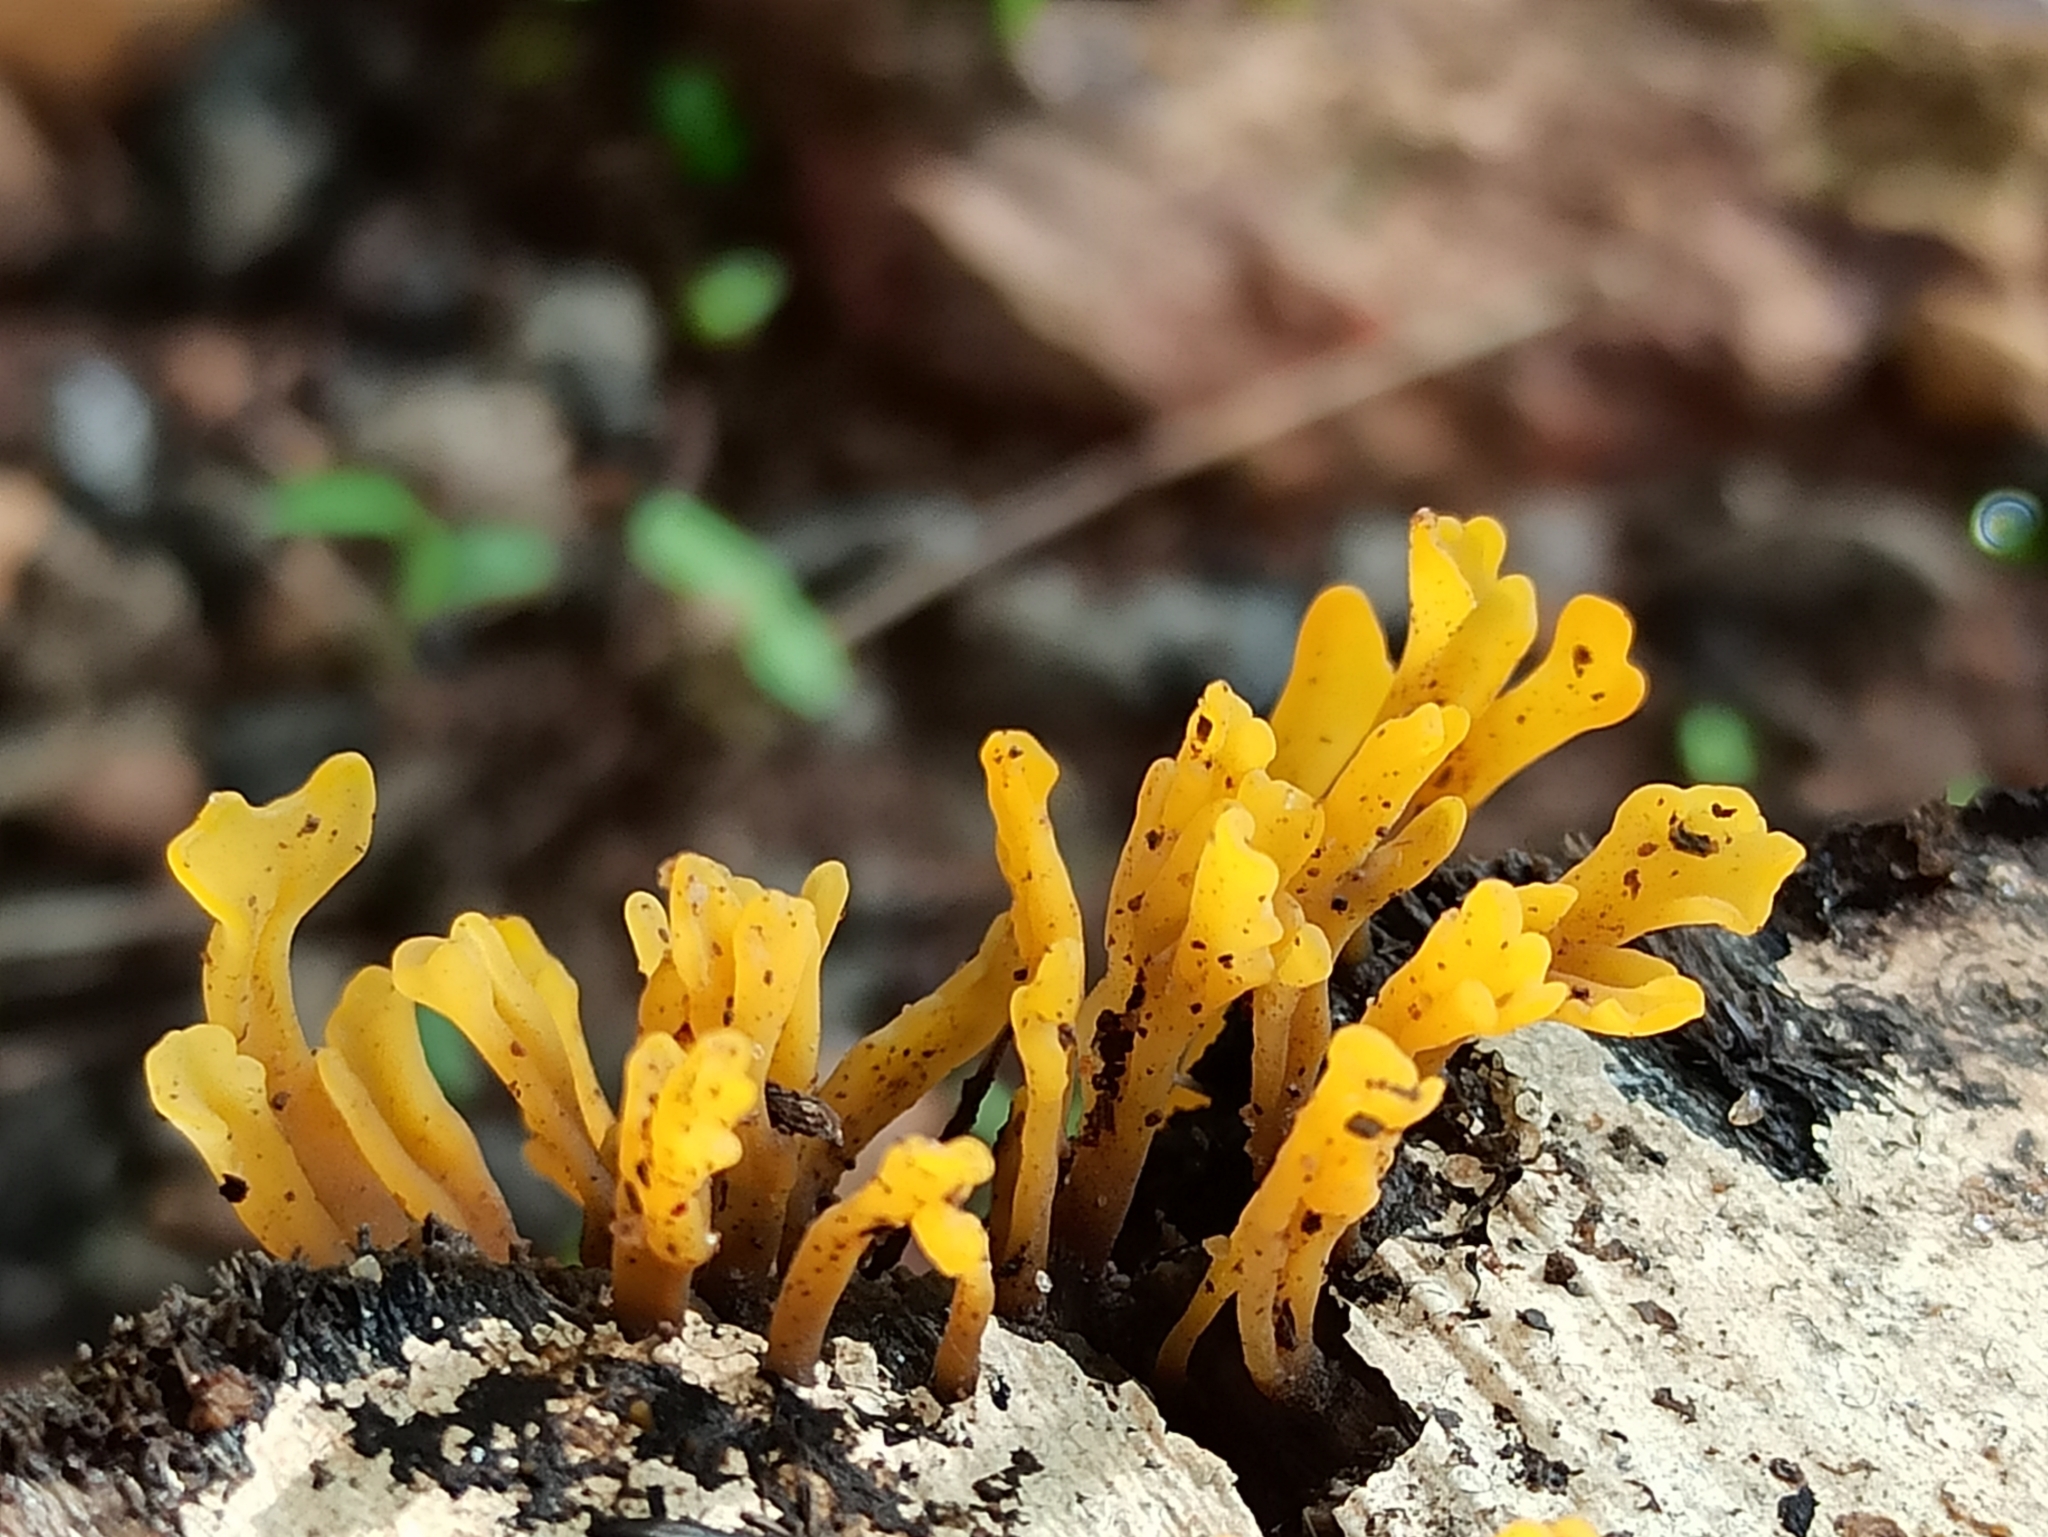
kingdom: Fungi
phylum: Basidiomycota
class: Dacrymycetes
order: Dacrymycetales
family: Dacrymycetaceae
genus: Dacrymyces
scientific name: Dacrymyces spathularius
